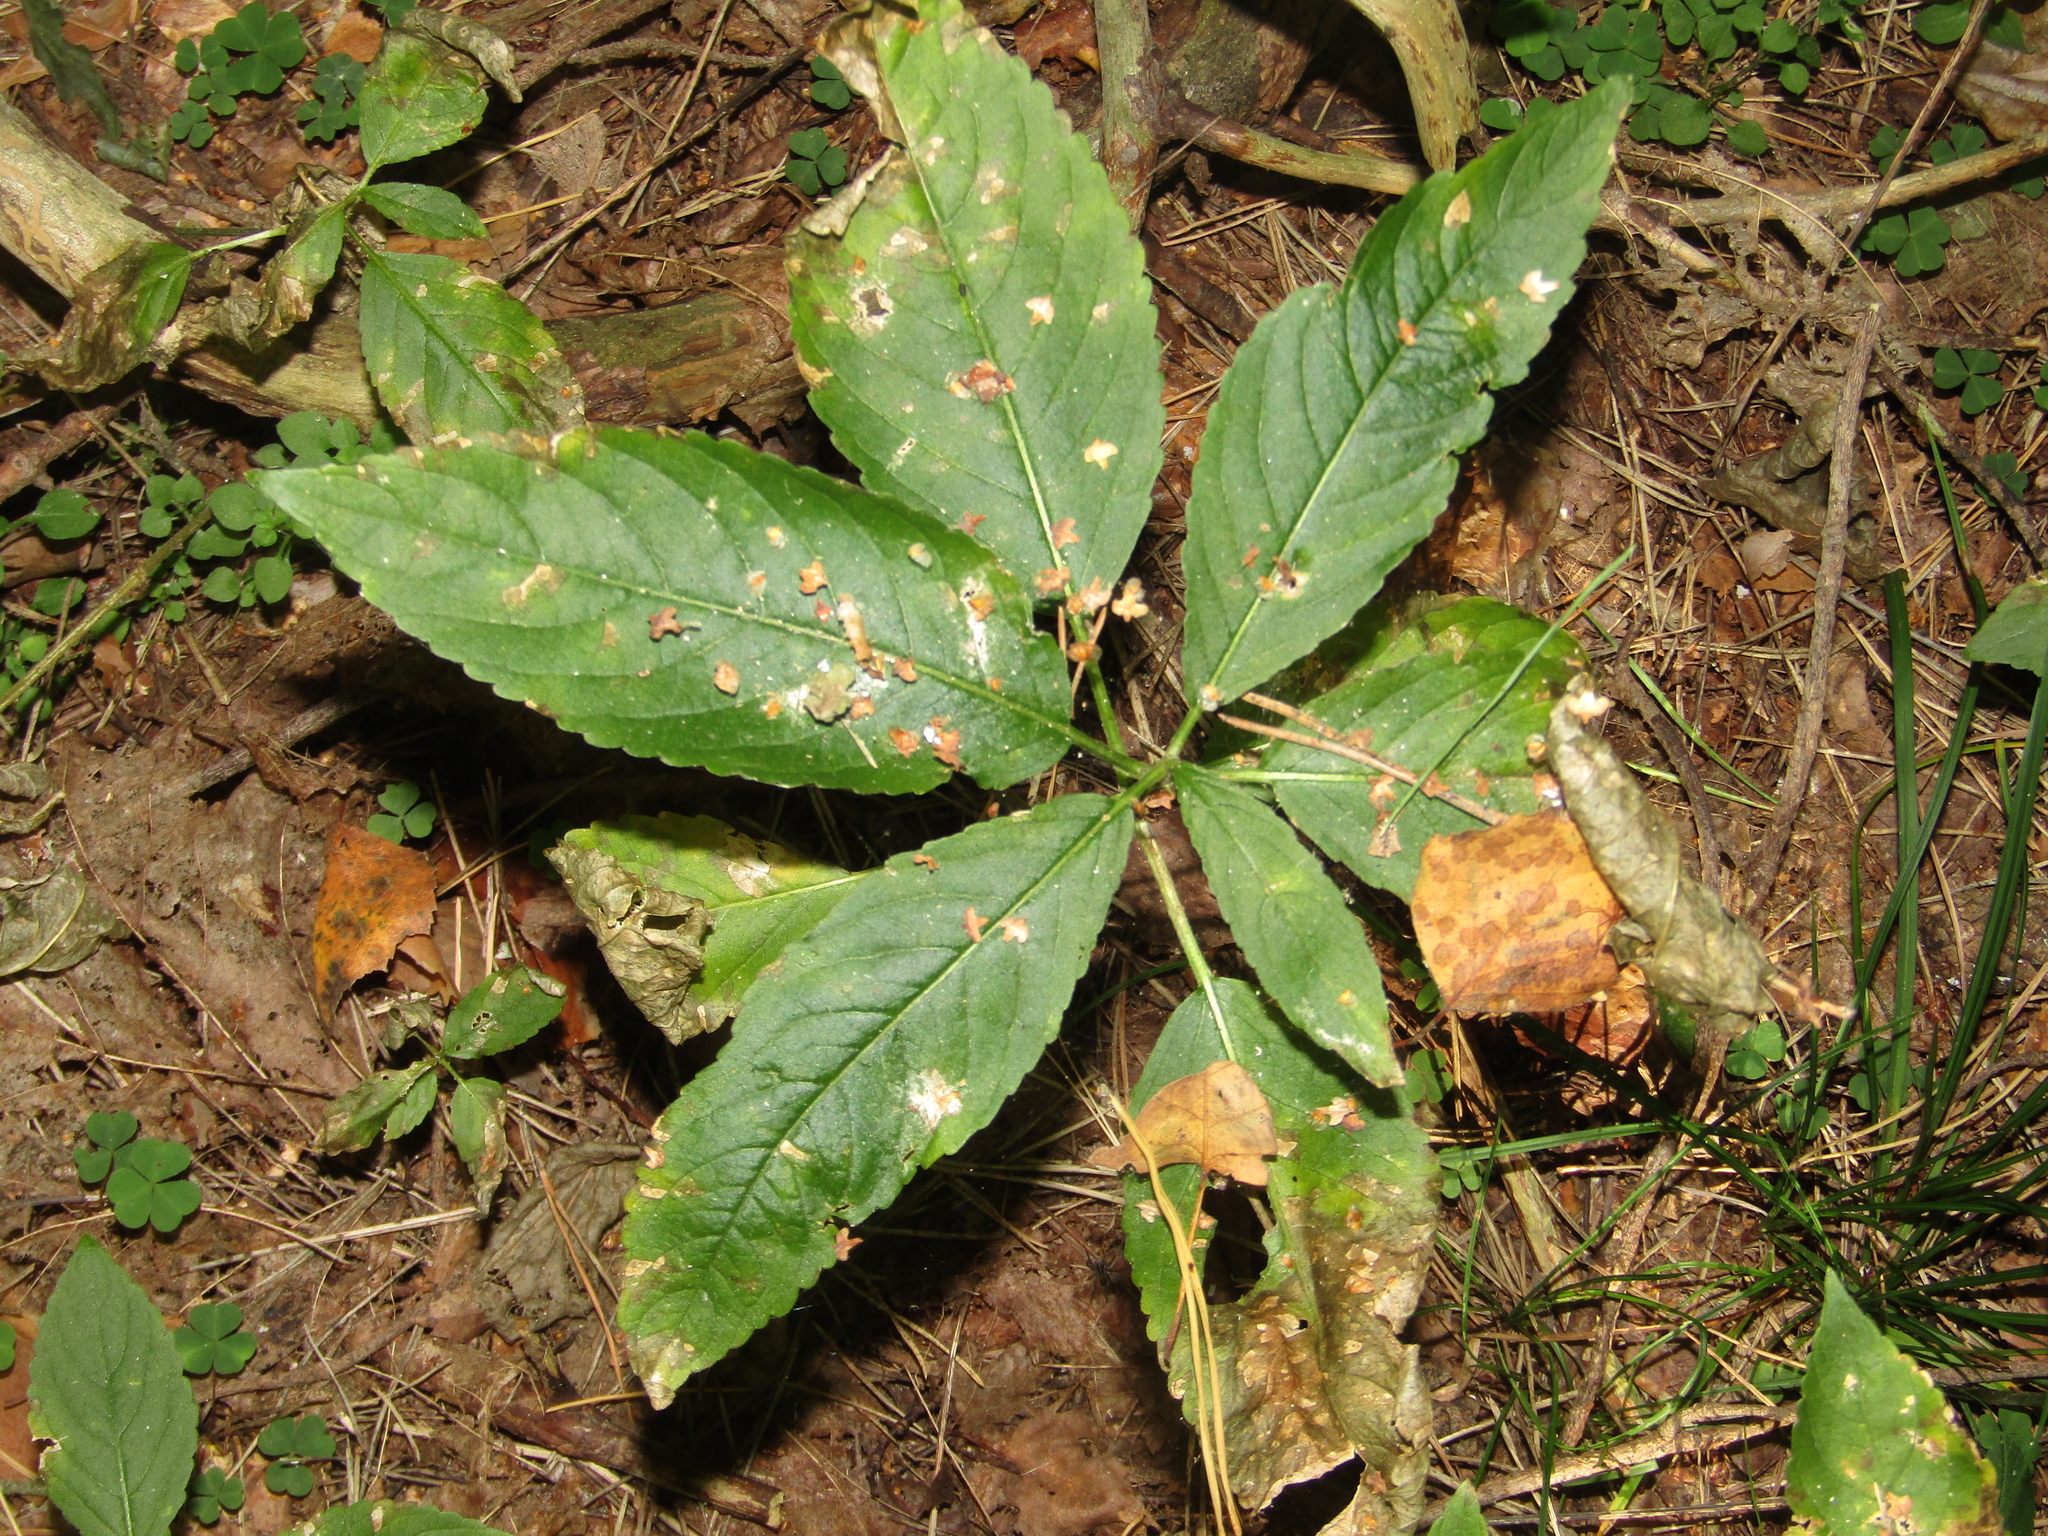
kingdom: Plantae
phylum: Tracheophyta
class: Magnoliopsida
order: Malpighiales
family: Euphorbiaceae
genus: Mercurialis
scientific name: Mercurialis perennis
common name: Dog mercury
